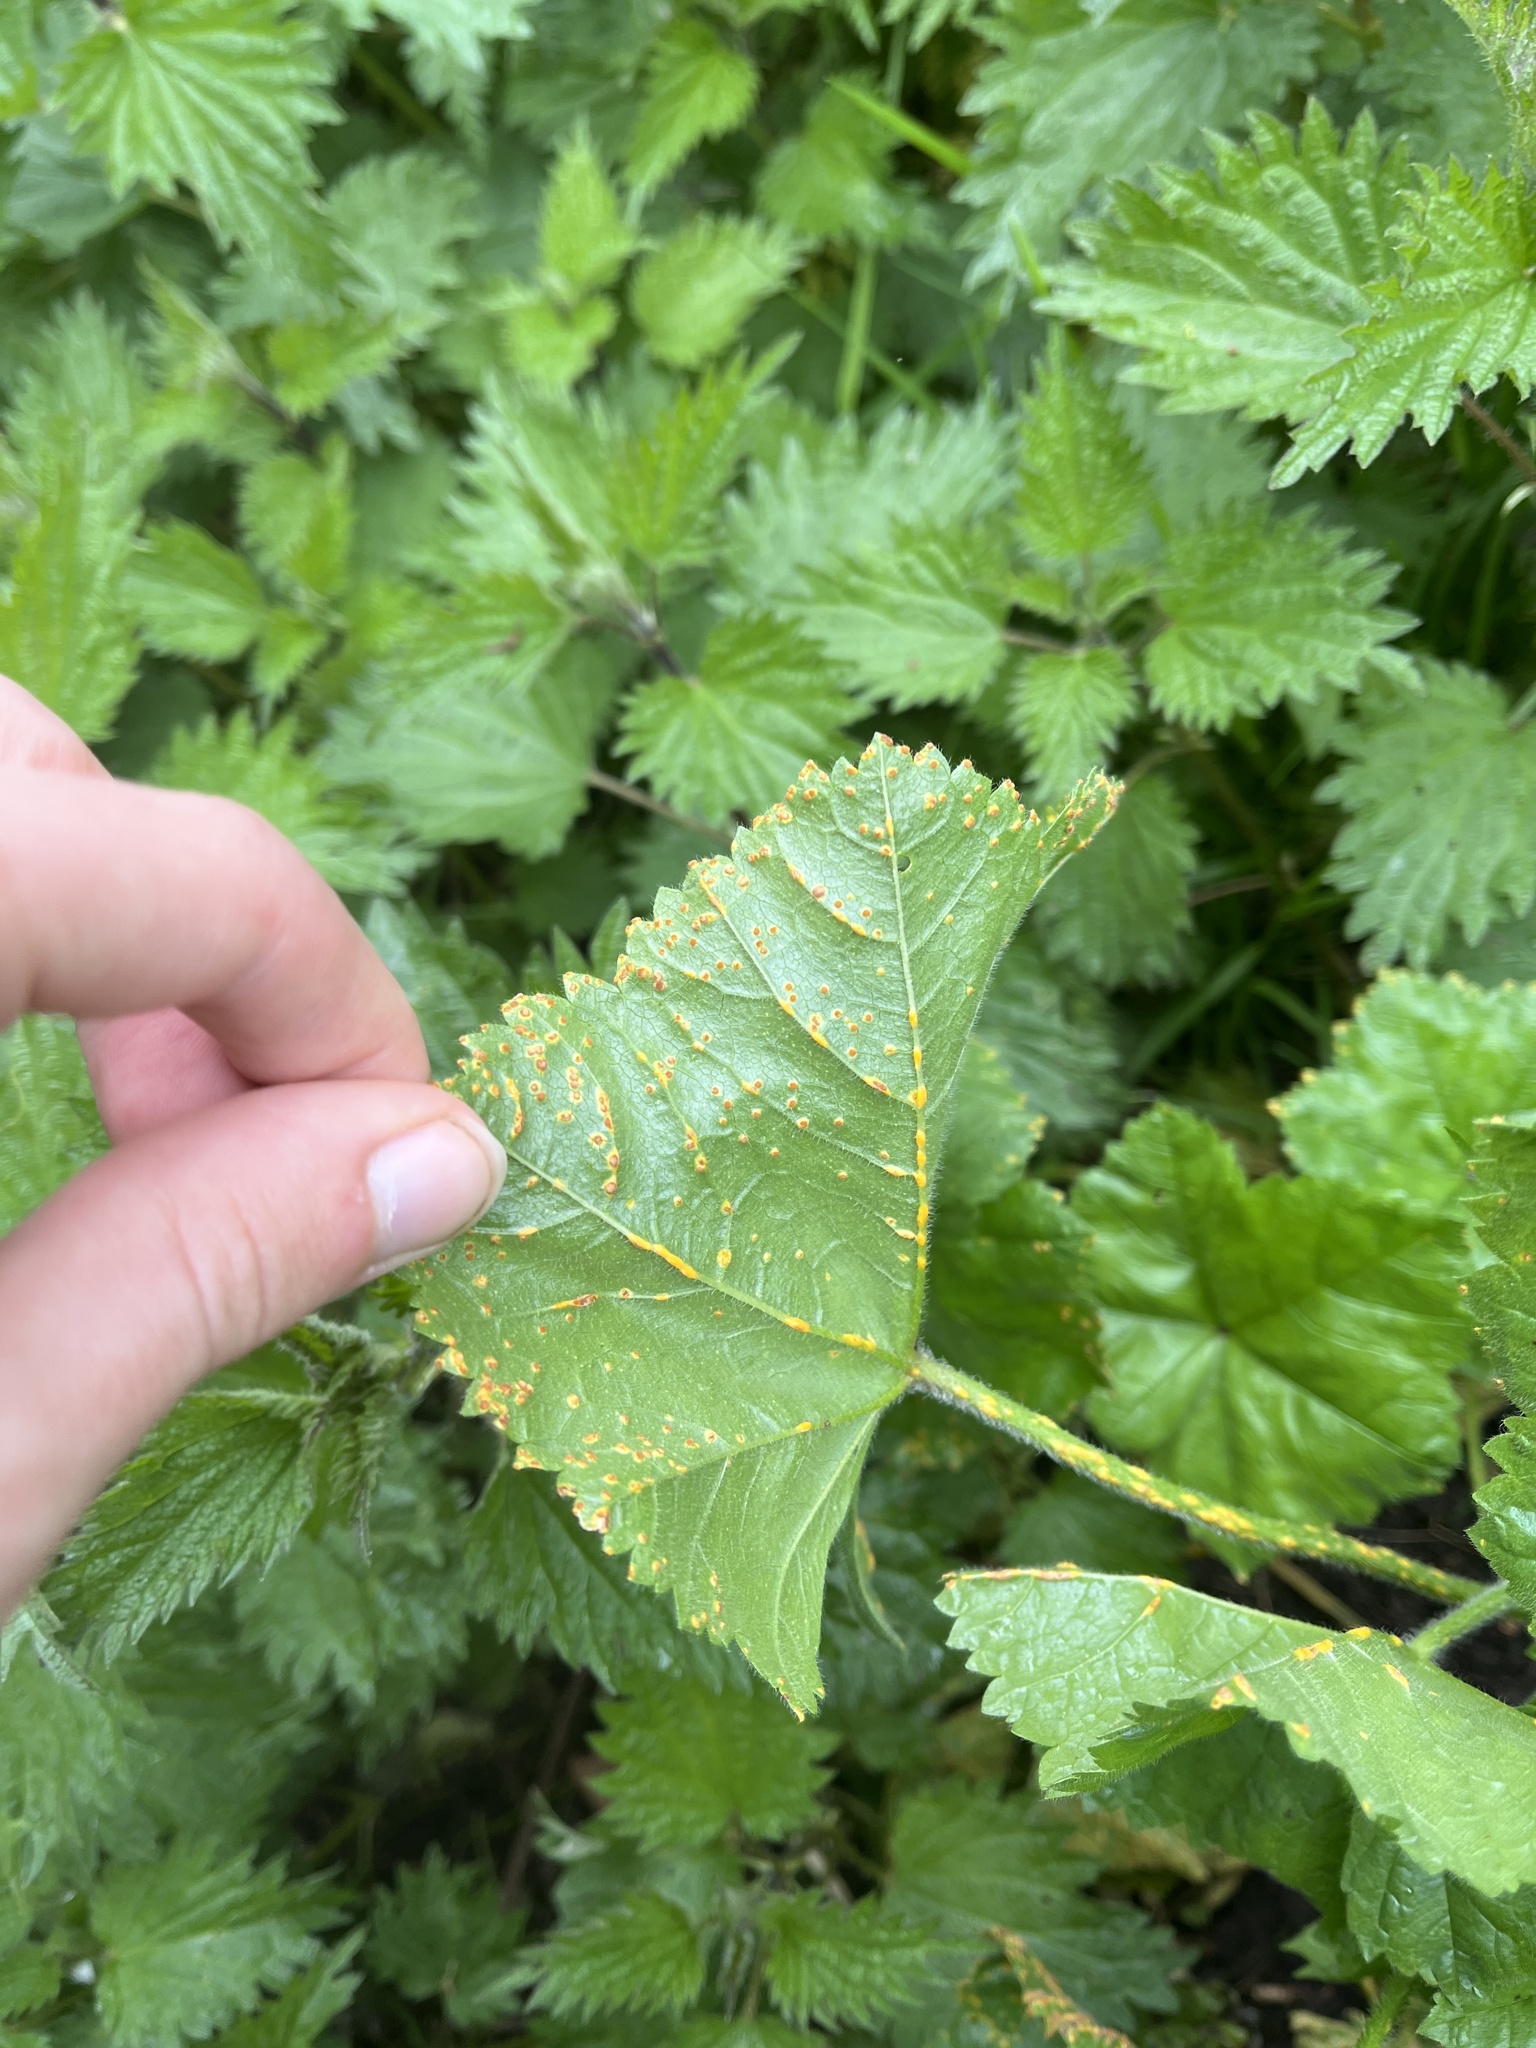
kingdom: Fungi
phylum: Basidiomycota
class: Pucciniomycetes
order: Pucciniales
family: Pucciniaceae
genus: Puccinia
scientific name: Puccinia malvacearum
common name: Hollyhock rust
